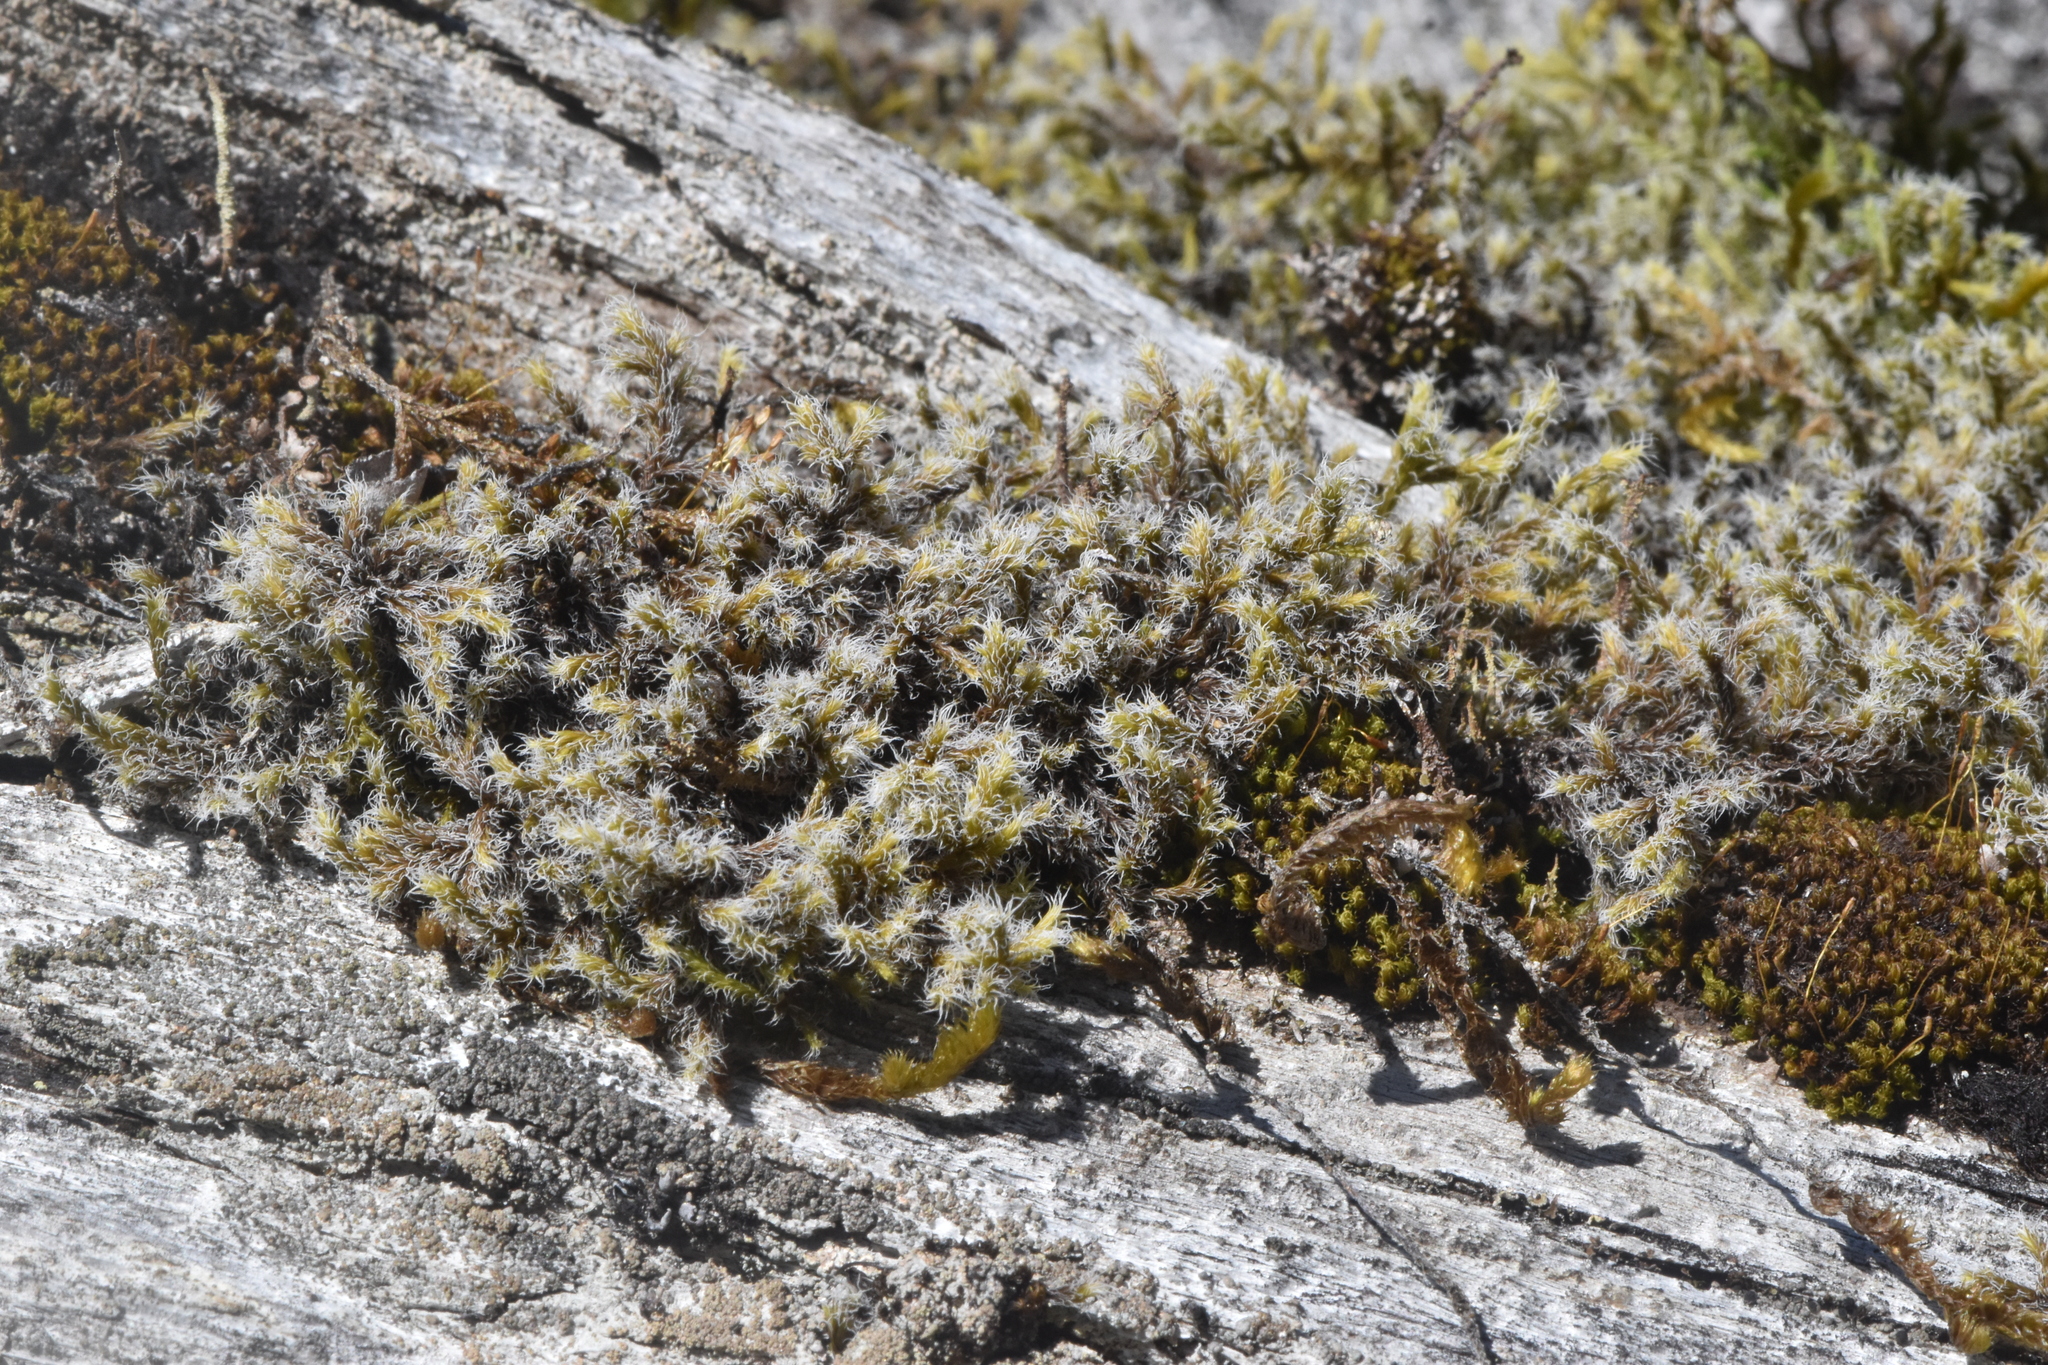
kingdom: Plantae
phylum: Bryophyta
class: Bryopsida
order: Grimmiales
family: Grimmiaceae
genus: Racomitrium
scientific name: Racomitrium lanuginosum
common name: Hoary rock moss
